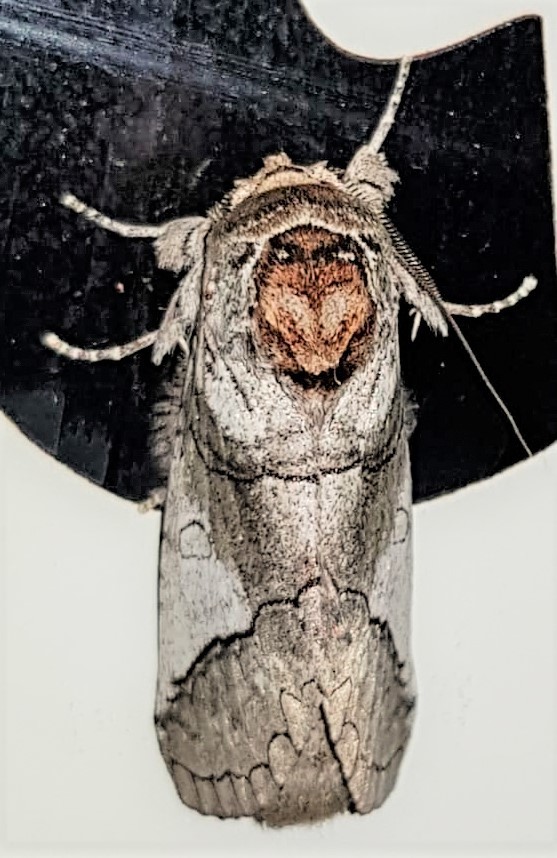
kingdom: Animalia
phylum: Arthropoda
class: Insecta
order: Lepidoptera
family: Notodontidae
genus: Rifargia
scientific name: Rifargia cinga
